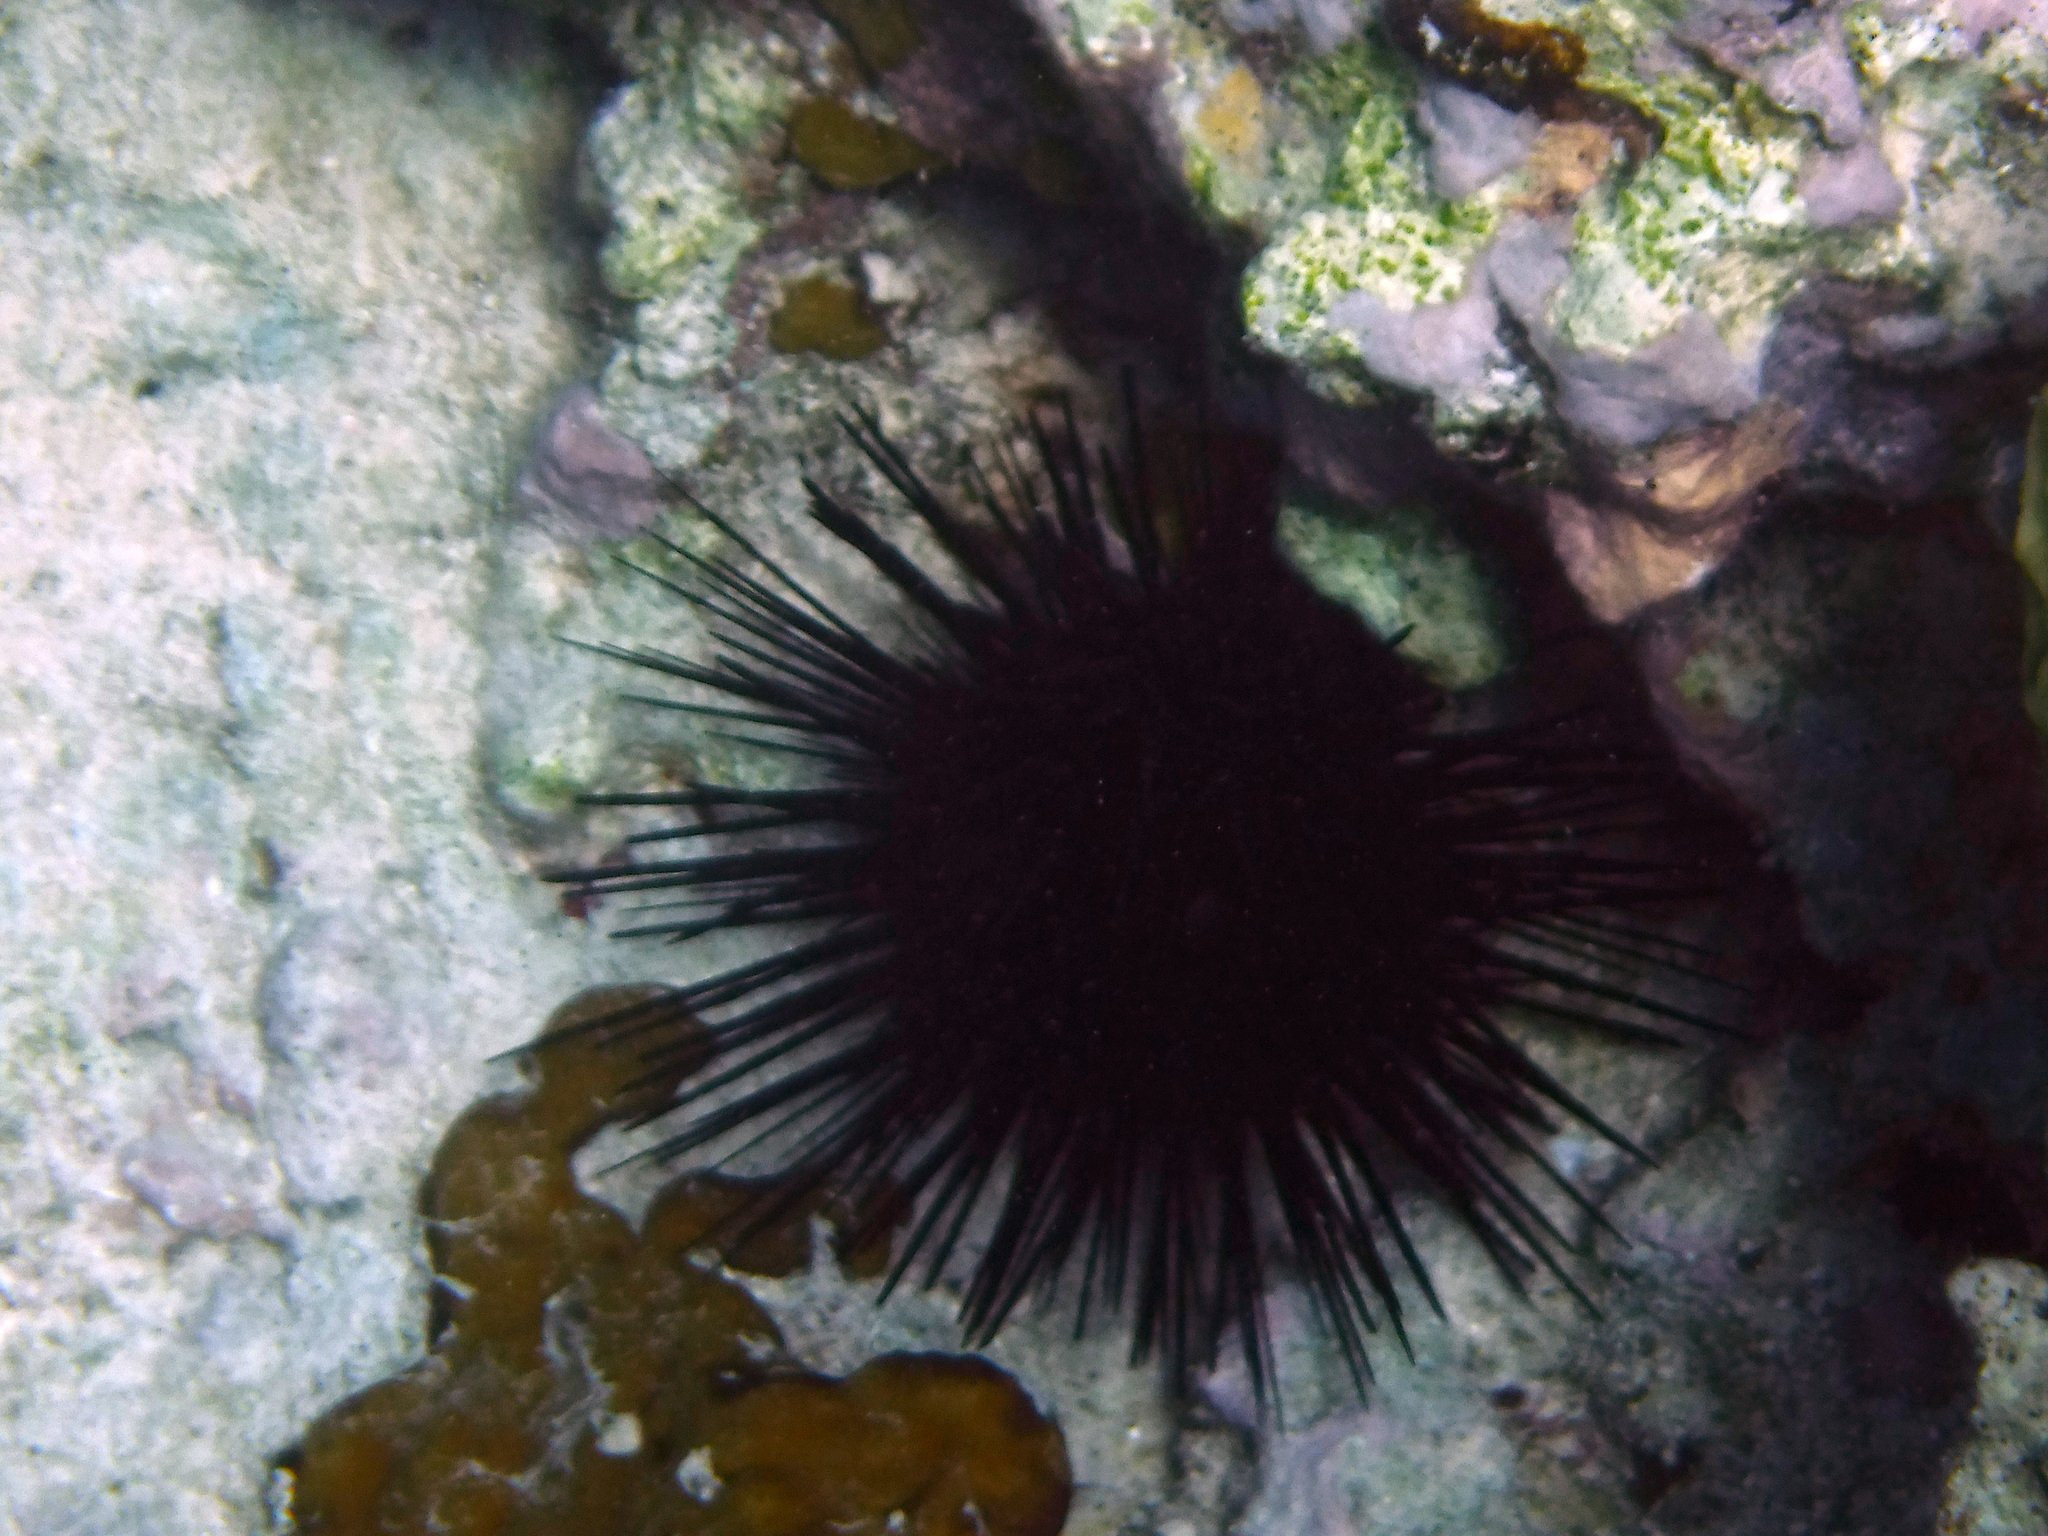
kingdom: Animalia
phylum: Echinodermata
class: Echinoidea
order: Diadematoida
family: Diadematidae
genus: Diadema
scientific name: Diadema antillarum
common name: Spiny urchin
